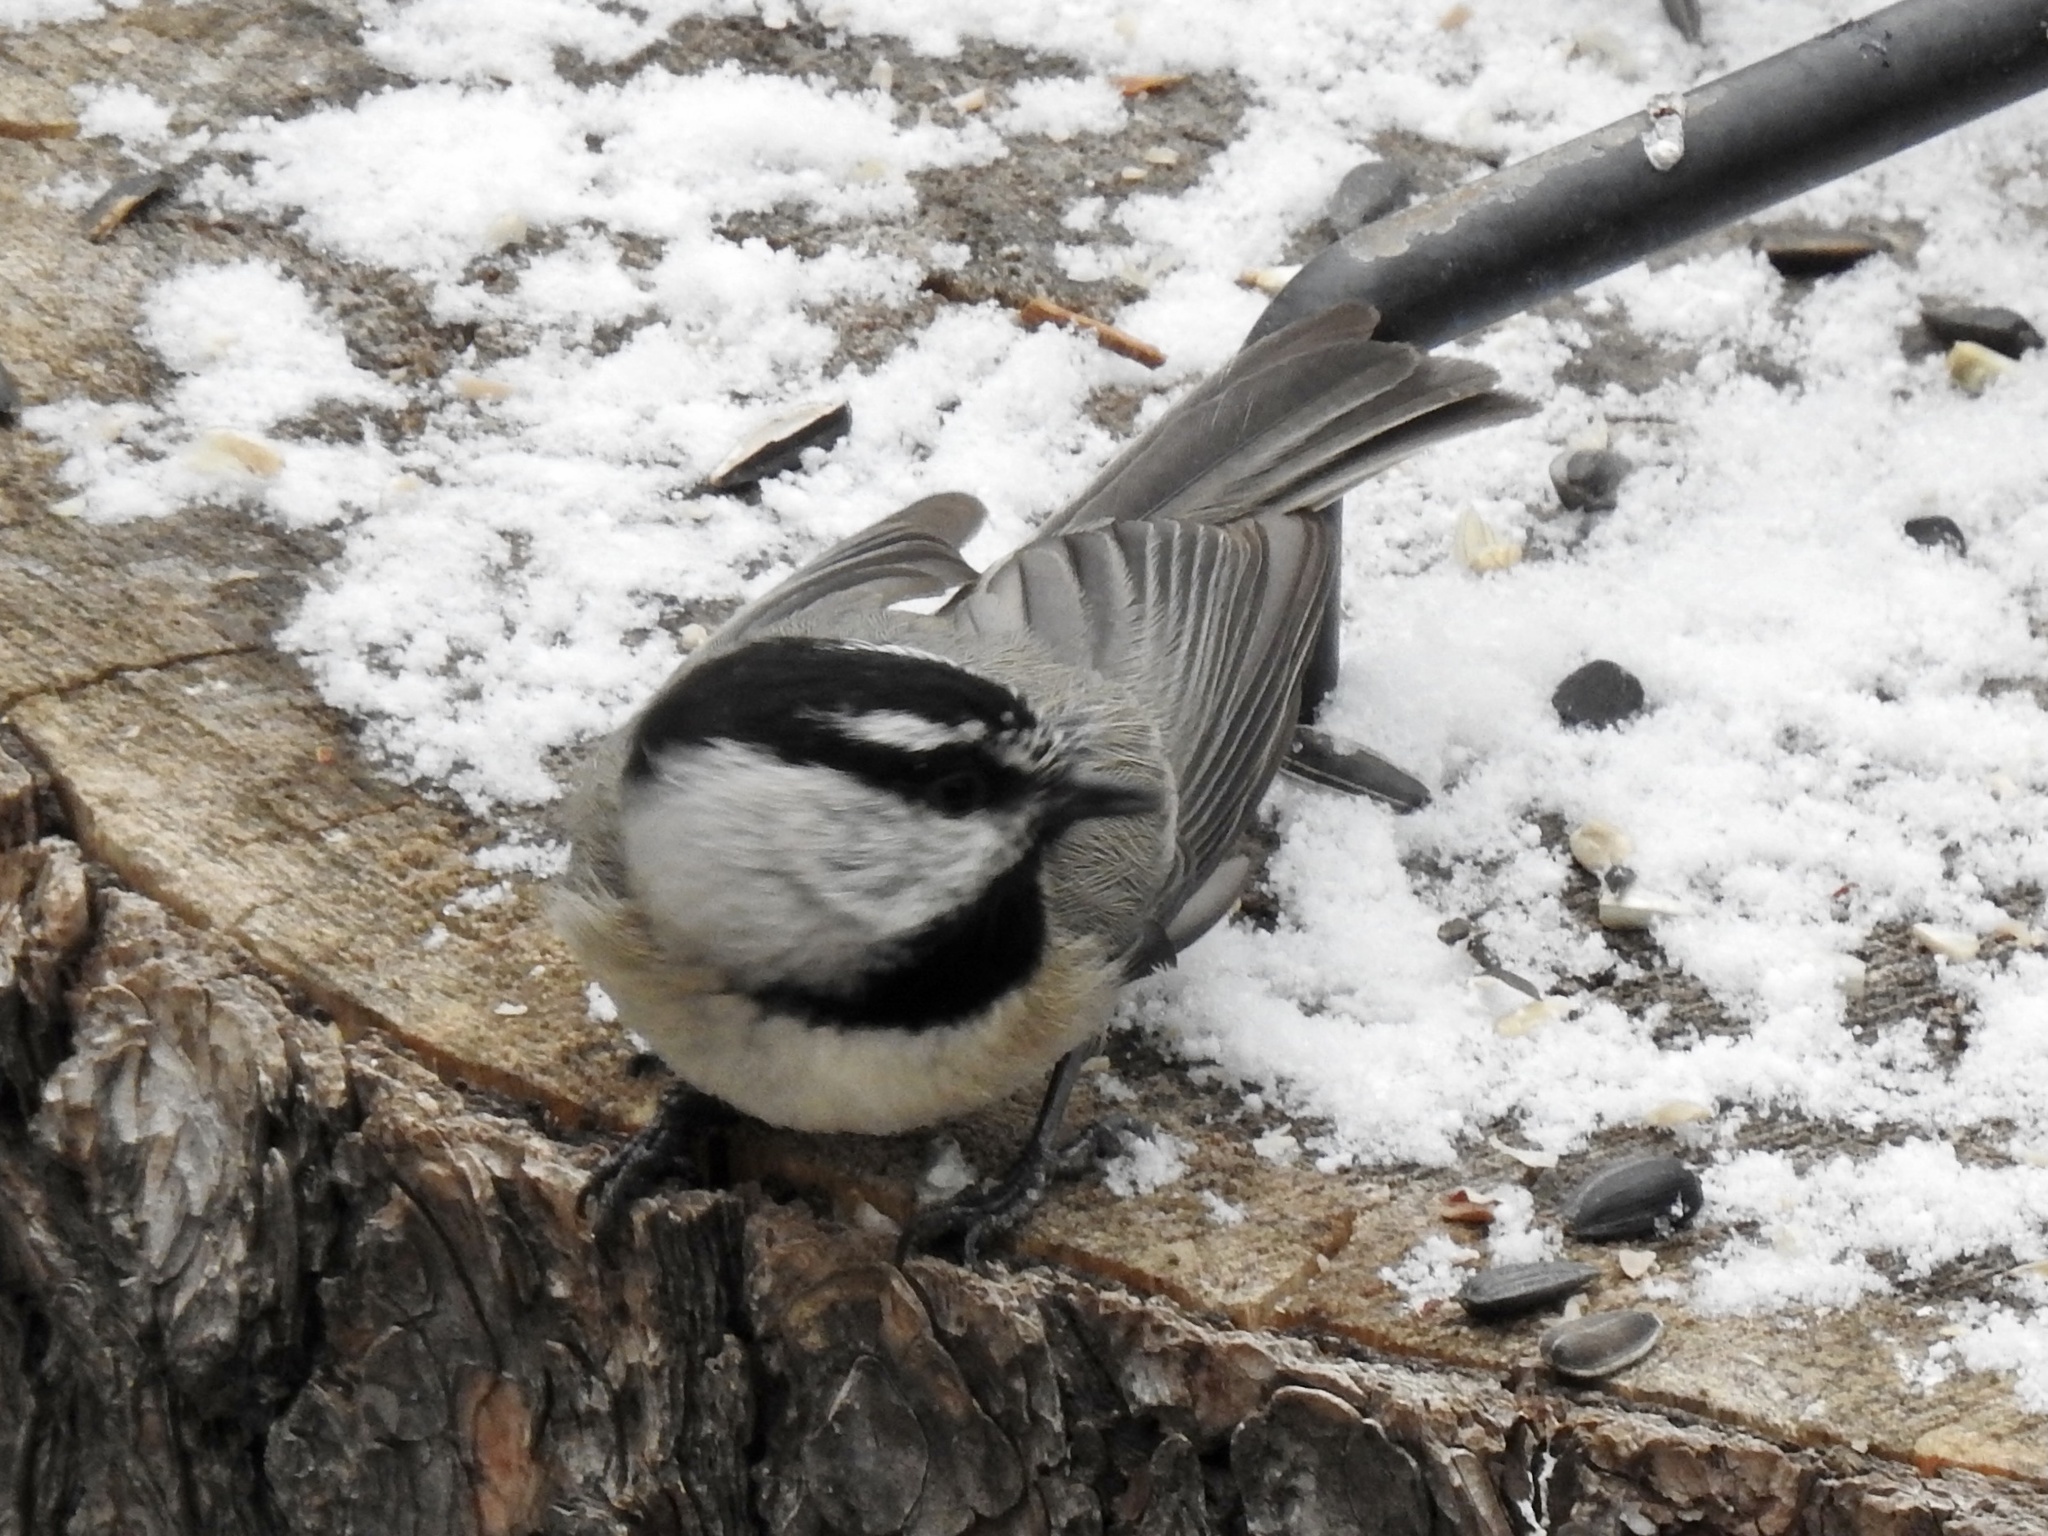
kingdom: Animalia
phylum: Chordata
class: Aves
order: Passeriformes
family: Paridae
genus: Poecile
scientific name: Poecile gambeli
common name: Mountain chickadee
